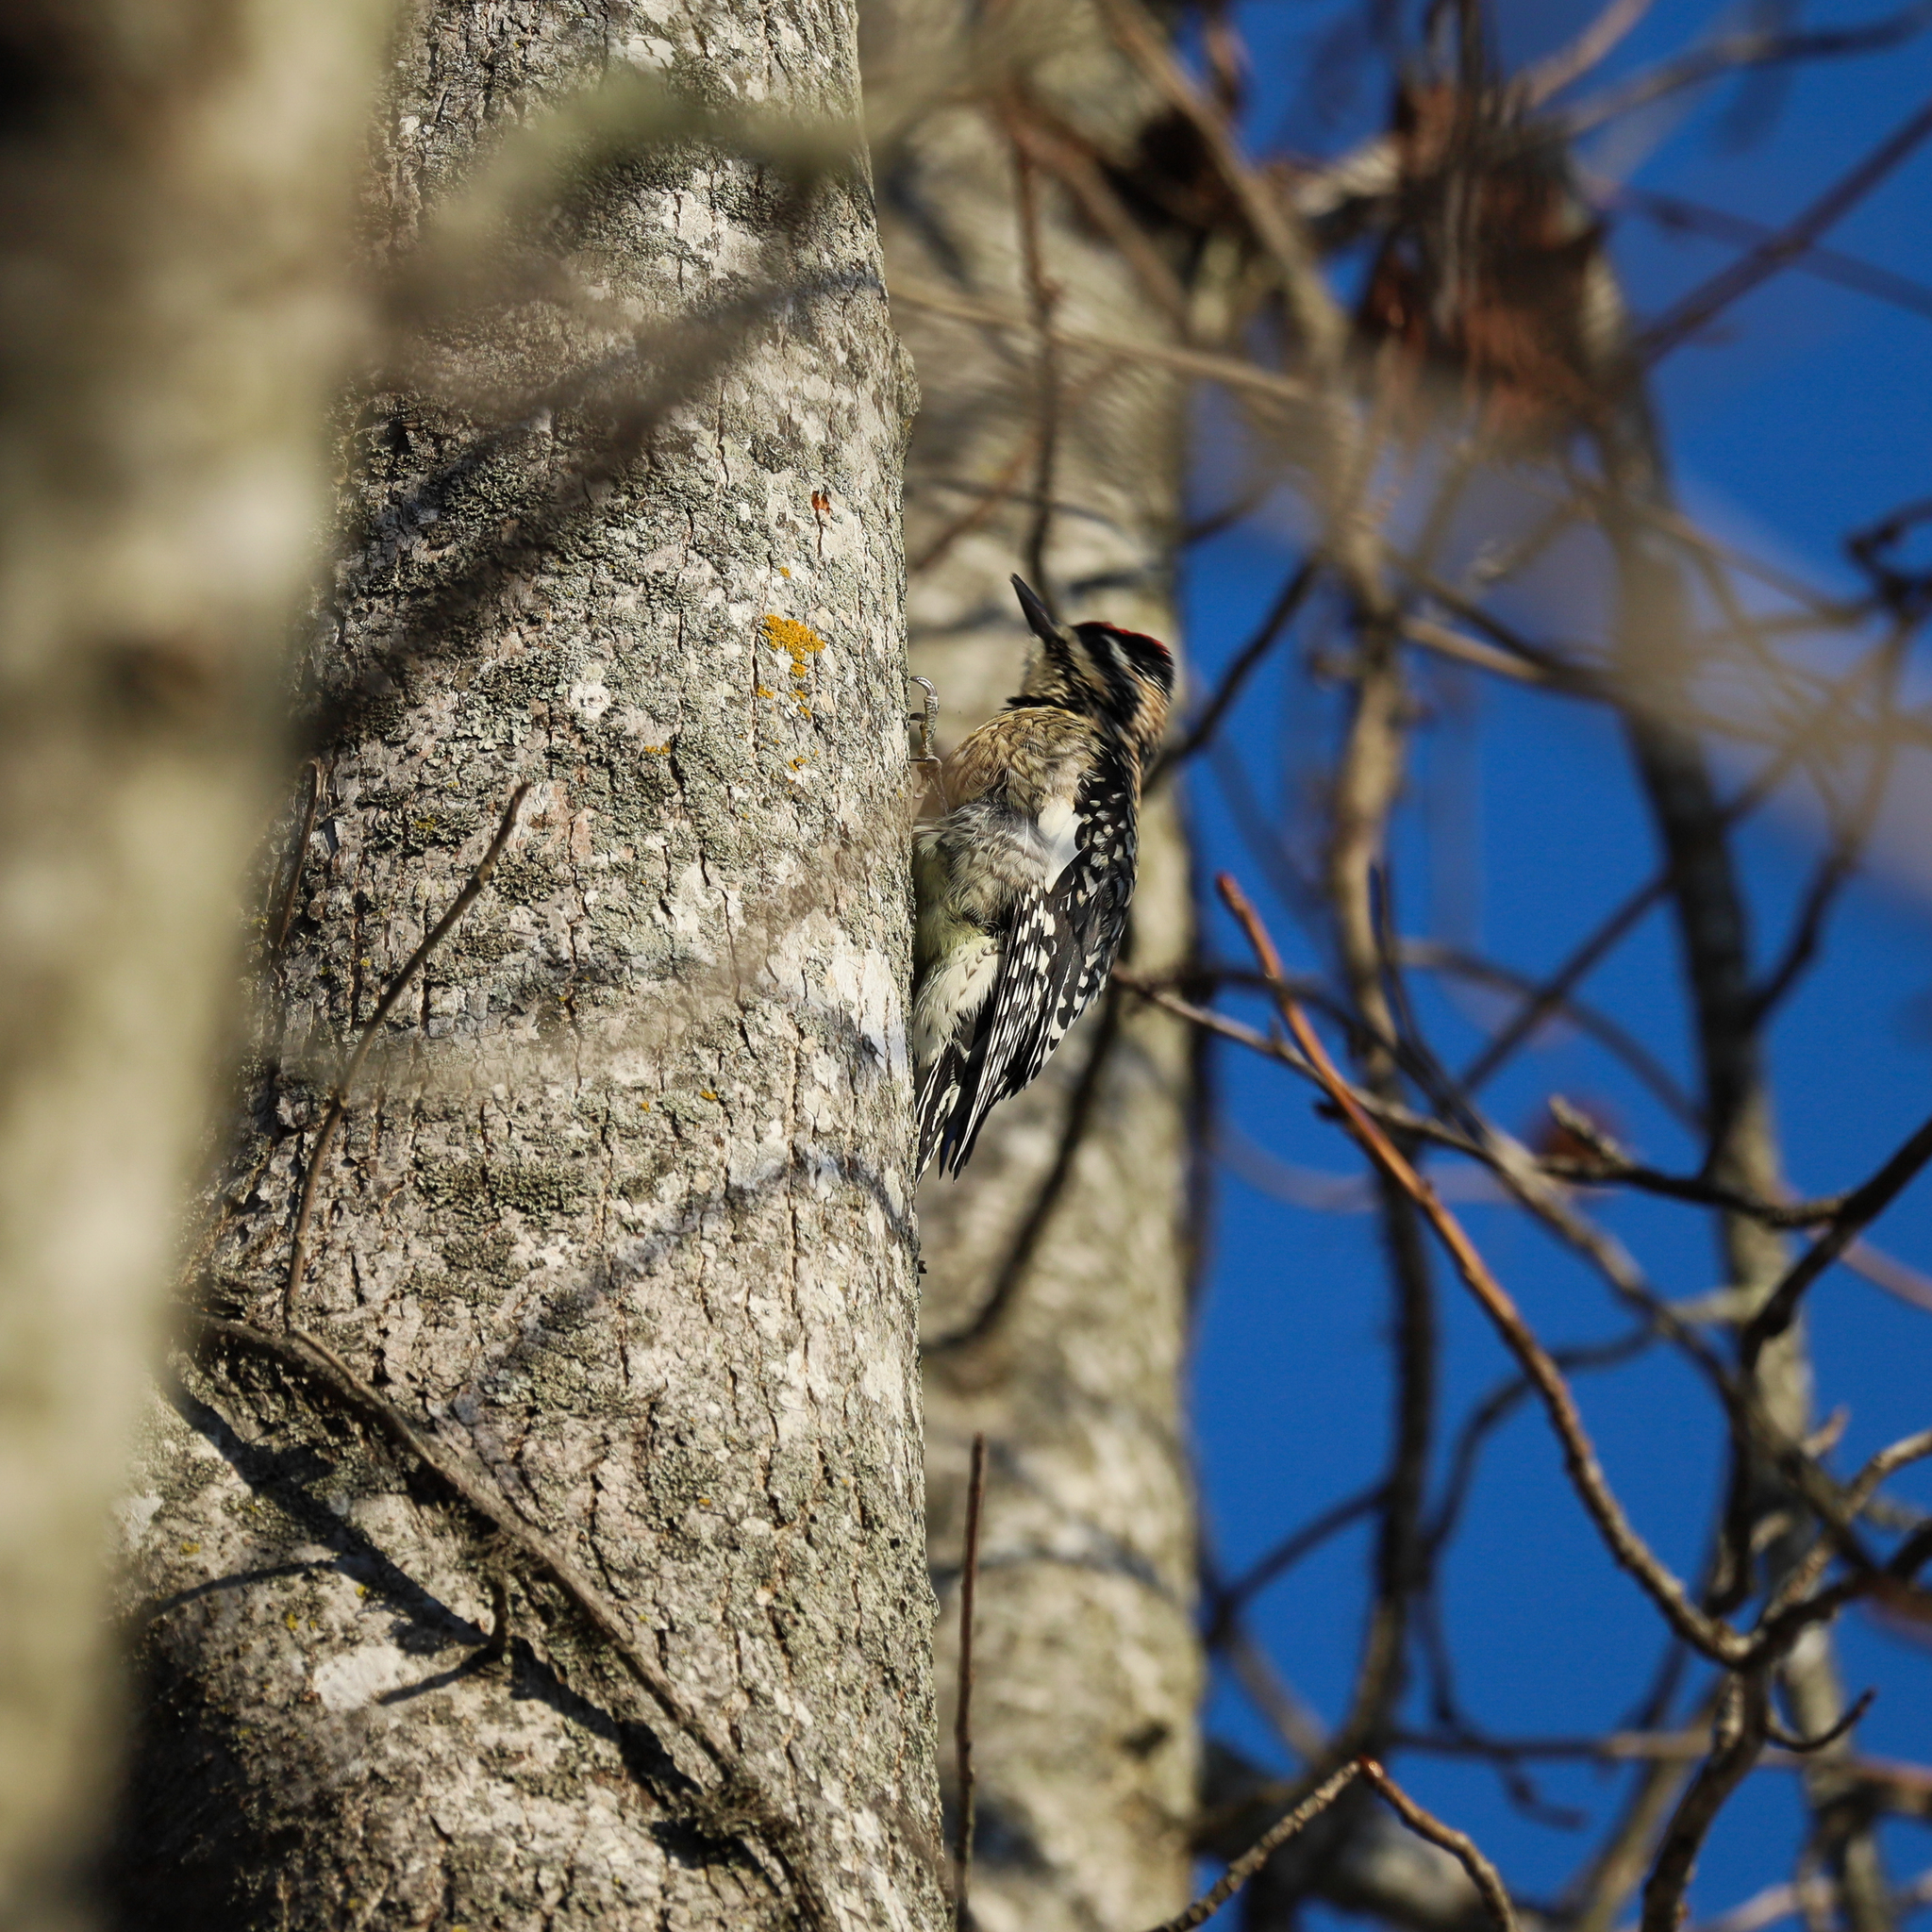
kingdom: Animalia
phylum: Chordata
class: Aves
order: Piciformes
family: Picidae
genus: Sphyrapicus
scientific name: Sphyrapicus varius
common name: Yellow-bellied sapsucker
